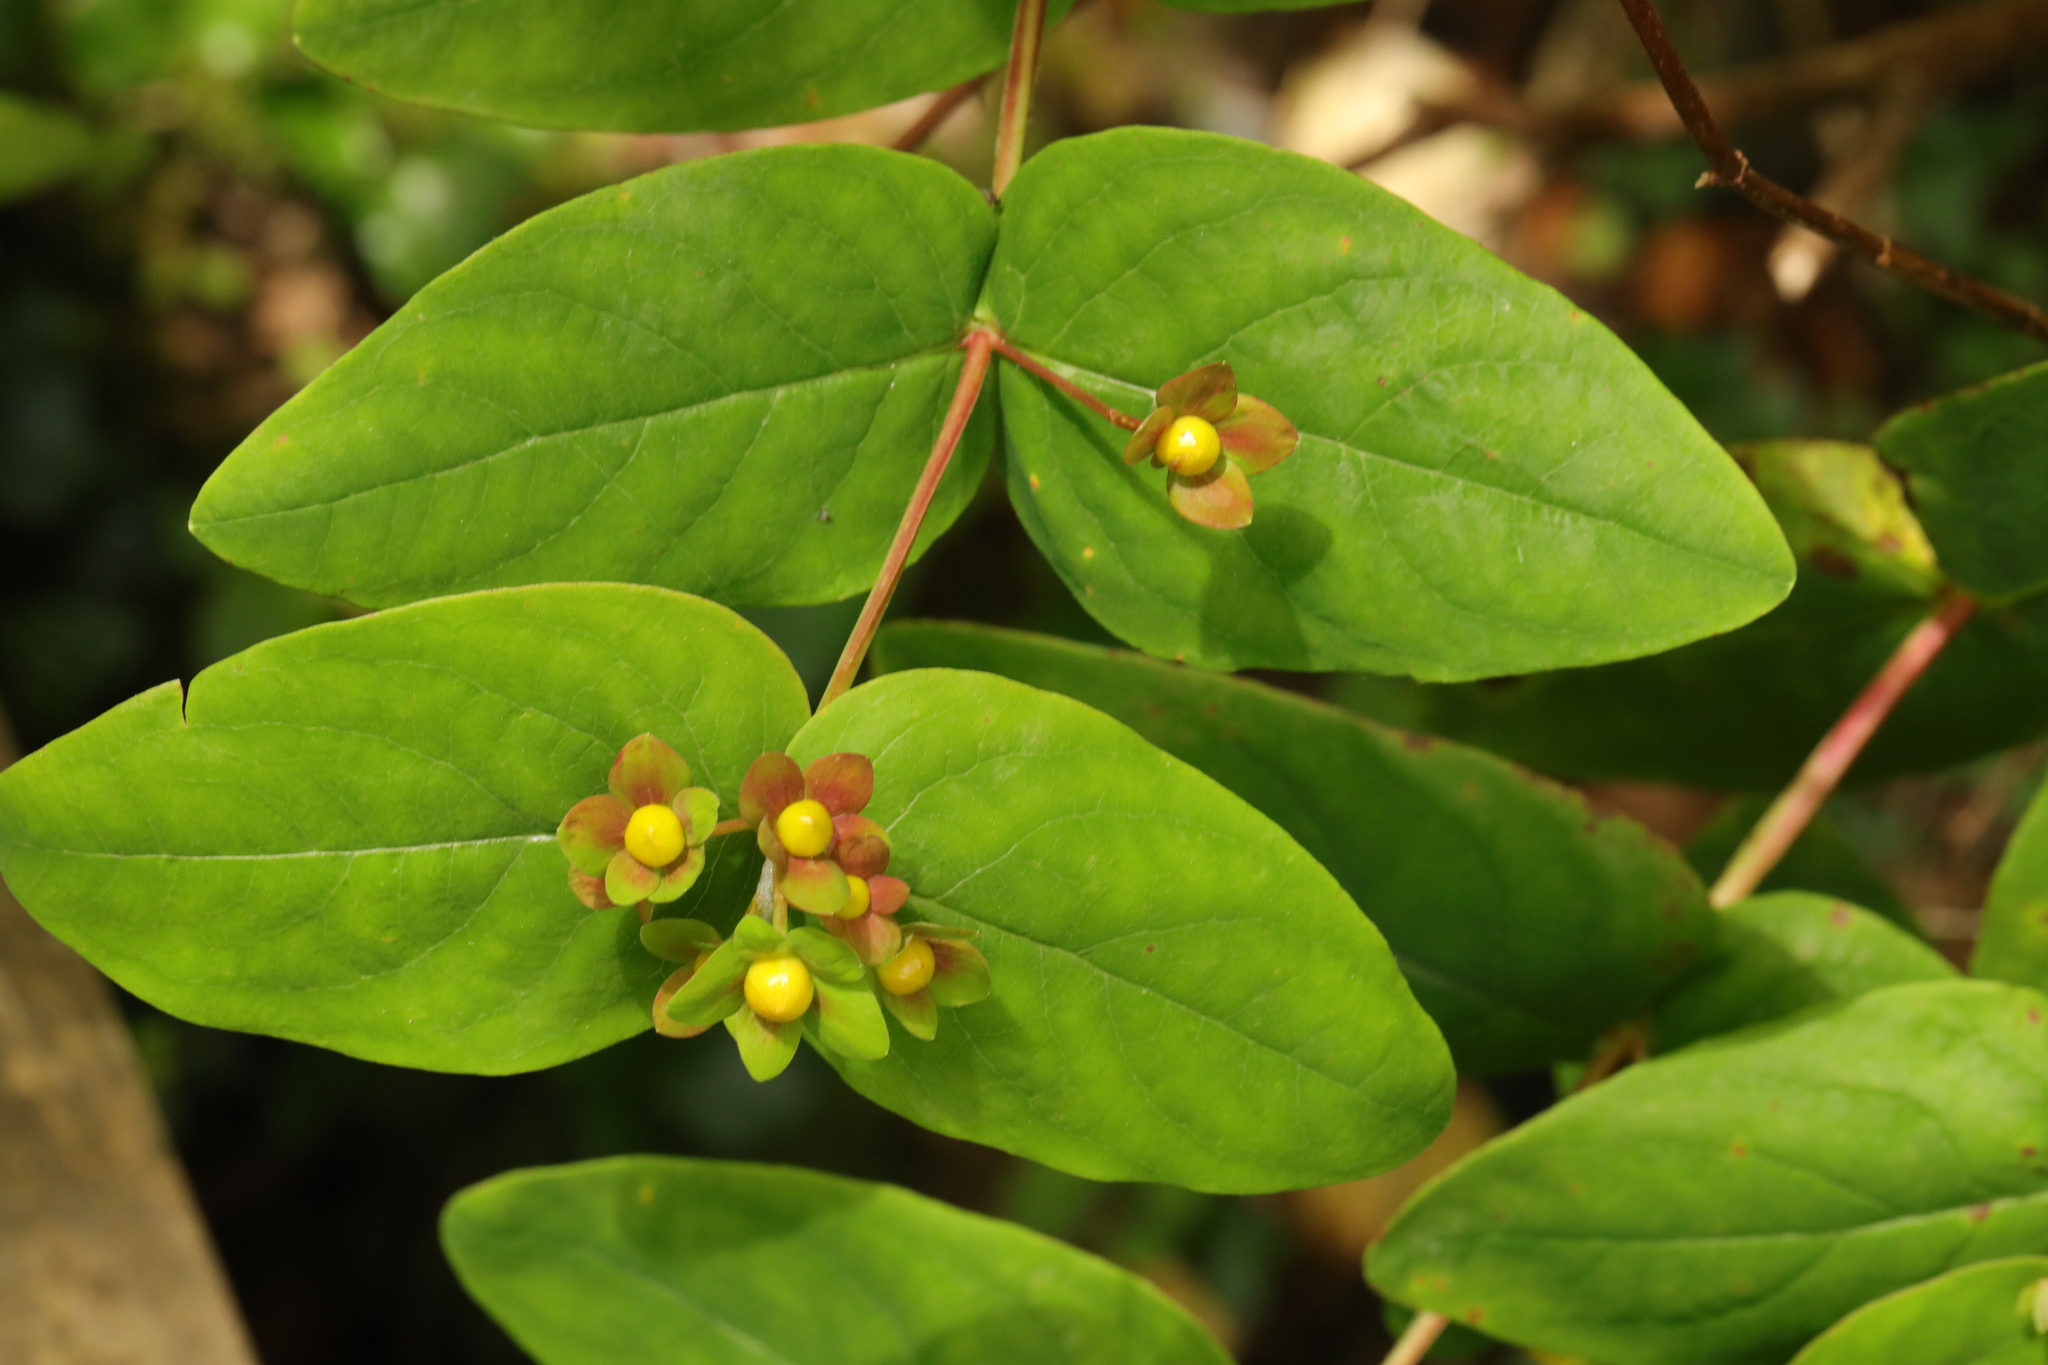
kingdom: Plantae
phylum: Tracheophyta
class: Magnoliopsida
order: Malpighiales
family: Hypericaceae
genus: Hypericum
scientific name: Hypericum androsaemum
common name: Sweet-amber
